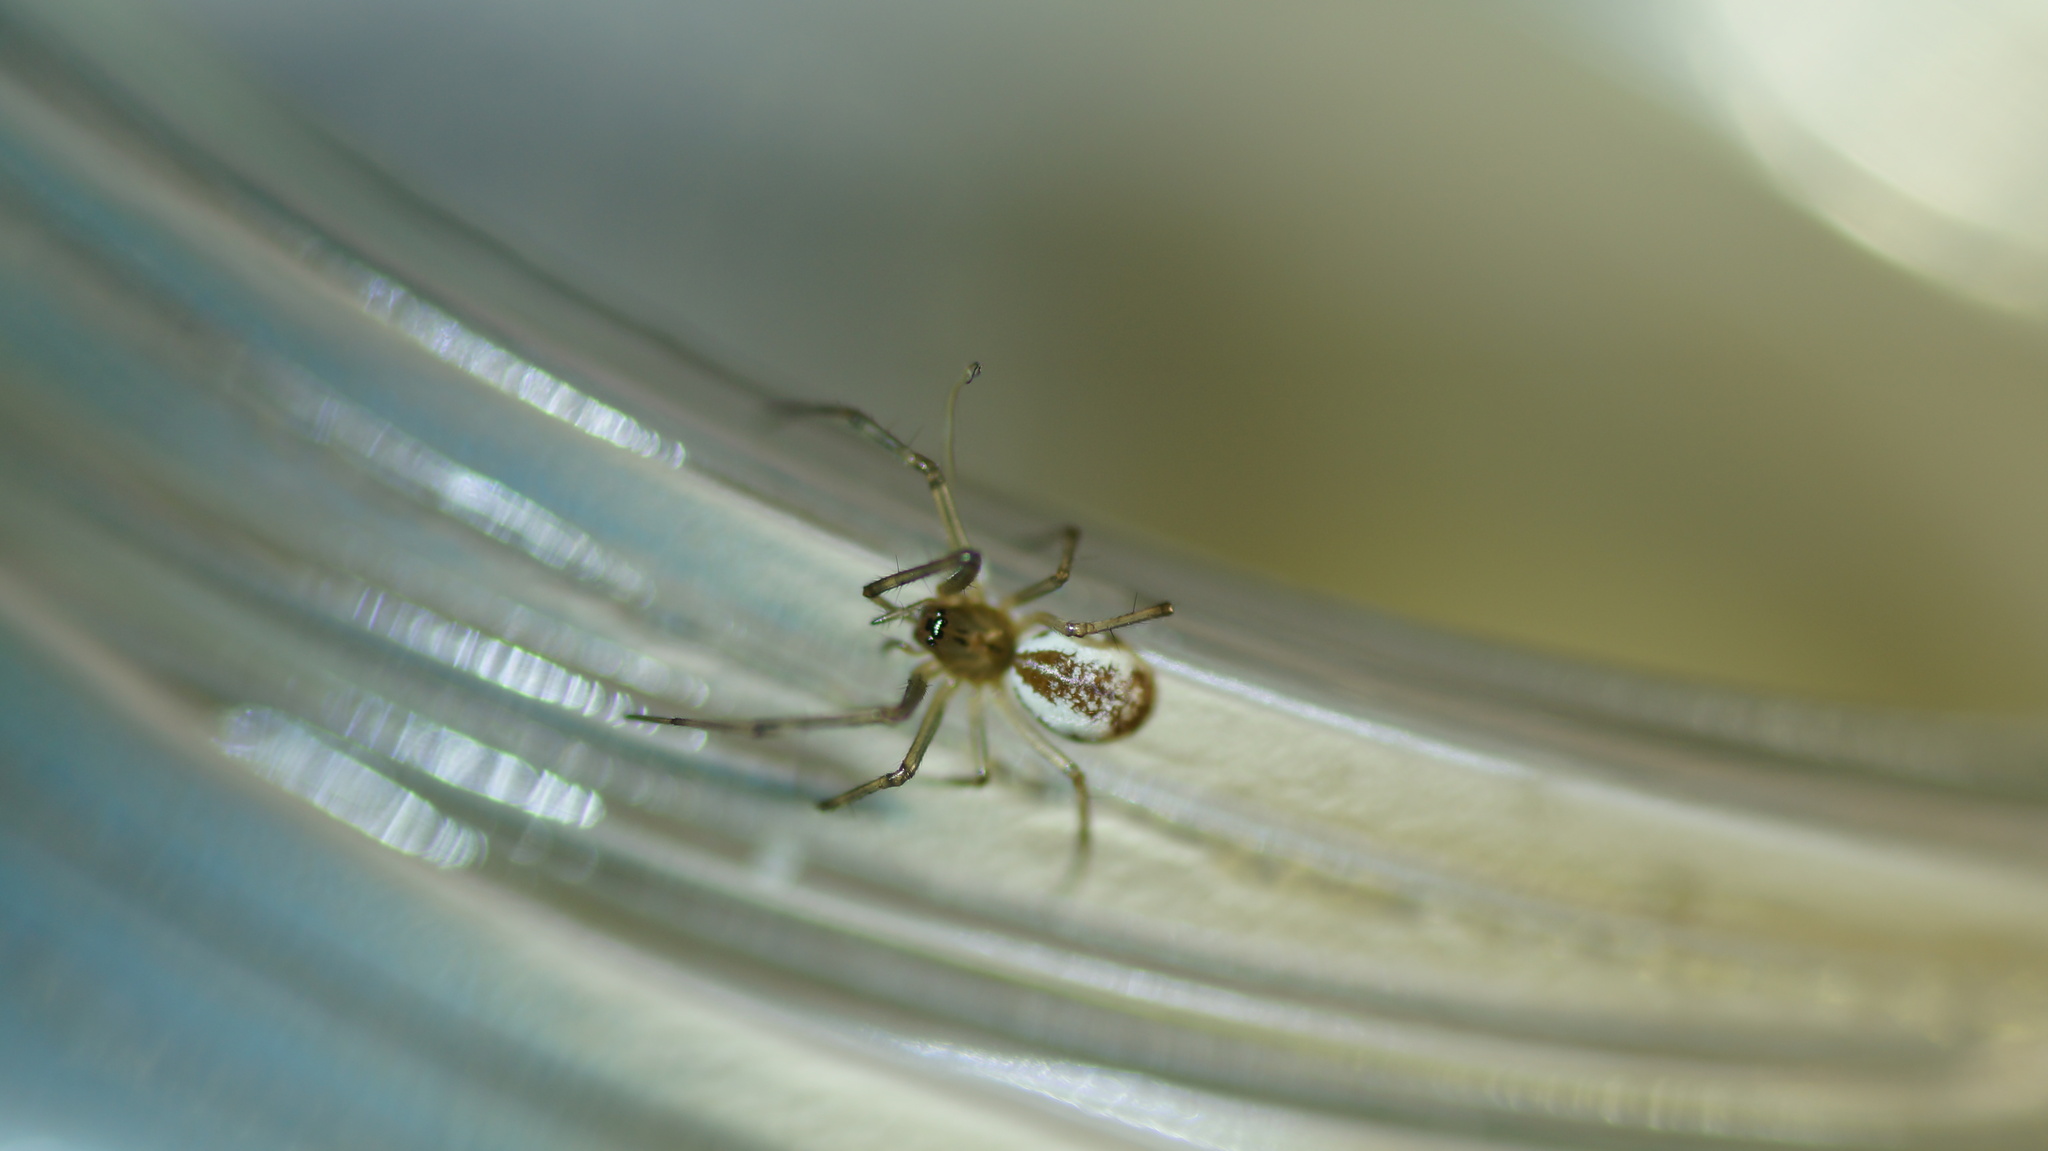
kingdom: Animalia
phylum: Arthropoda
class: Arachnida
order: Araneae
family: Linyphiidae
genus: Linyphia
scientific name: Linyphia triangularis
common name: Money spider
